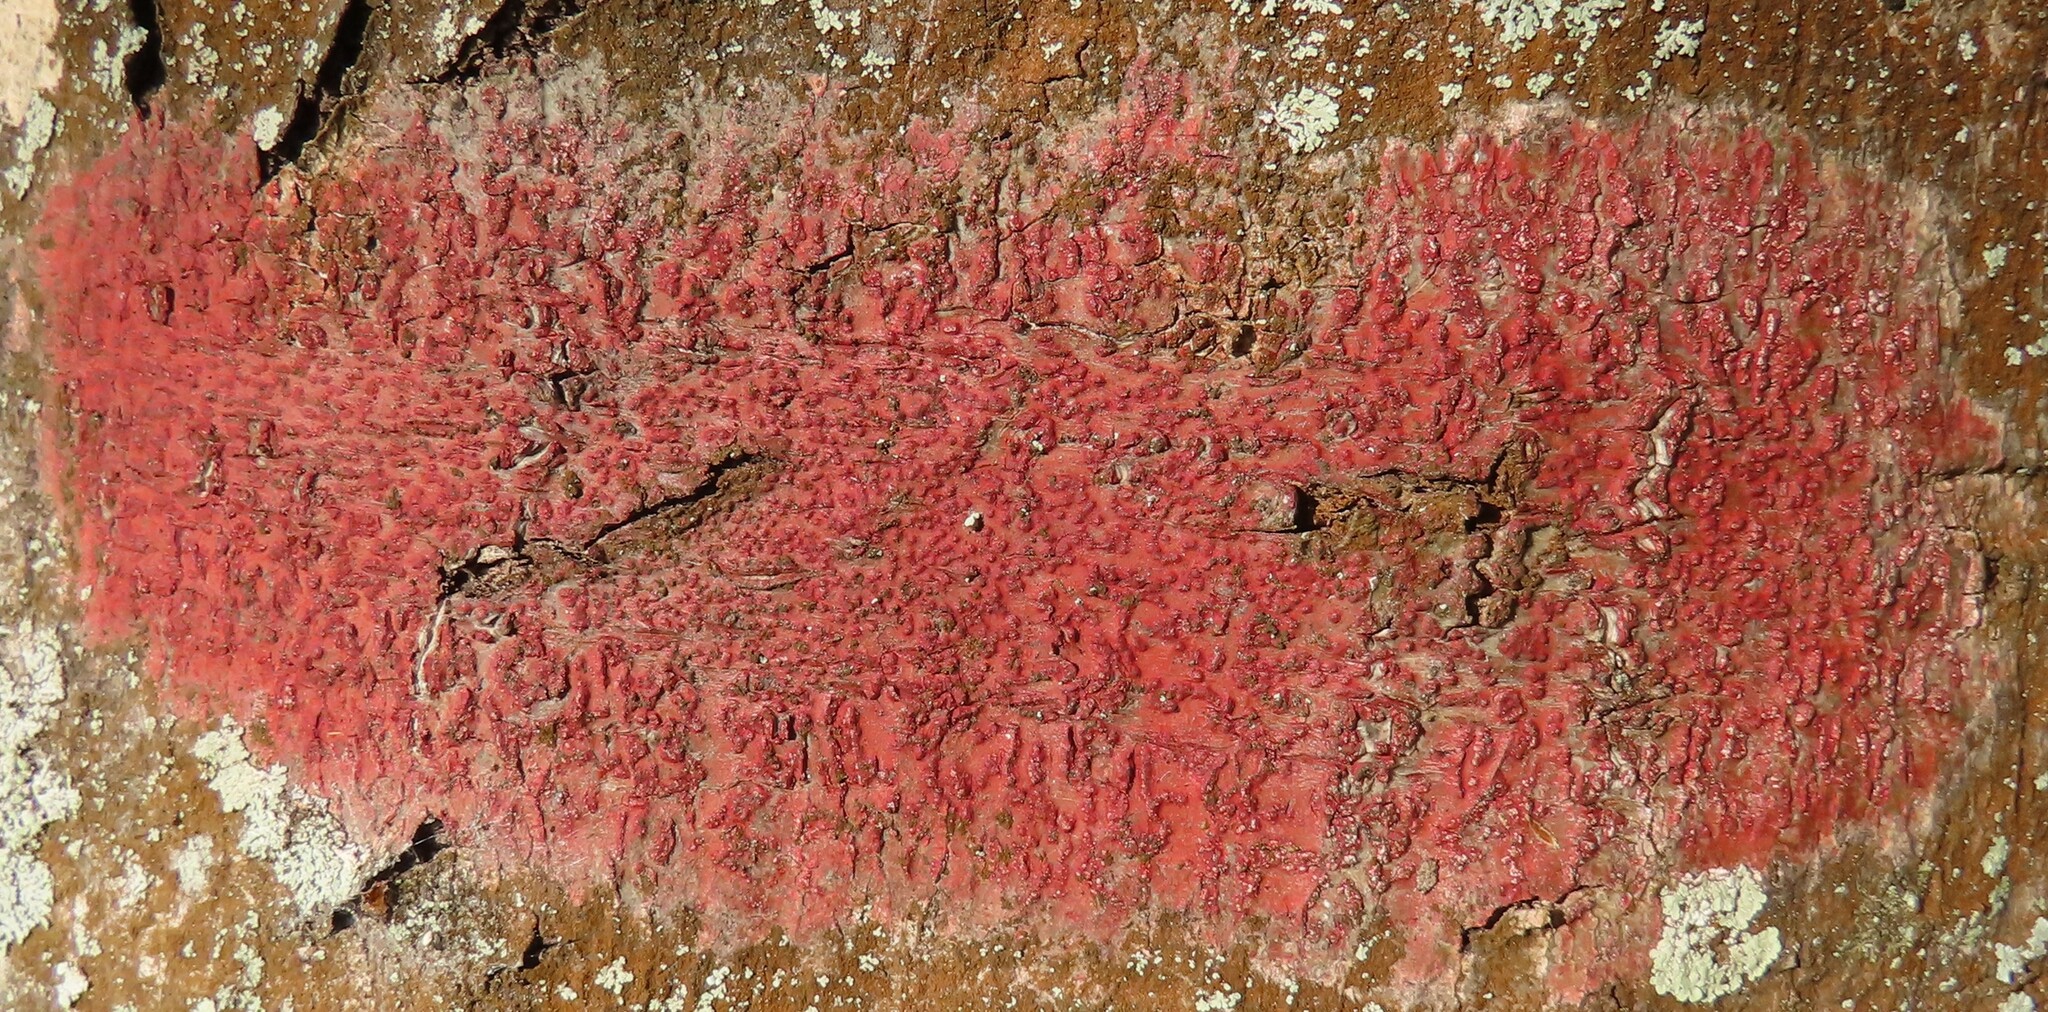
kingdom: Fungi
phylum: Ascomycota
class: Eurotiomycetes
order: Pyrenulales
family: Pyrenulaceae
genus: Pyrenula
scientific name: Pyrenula cruenta
